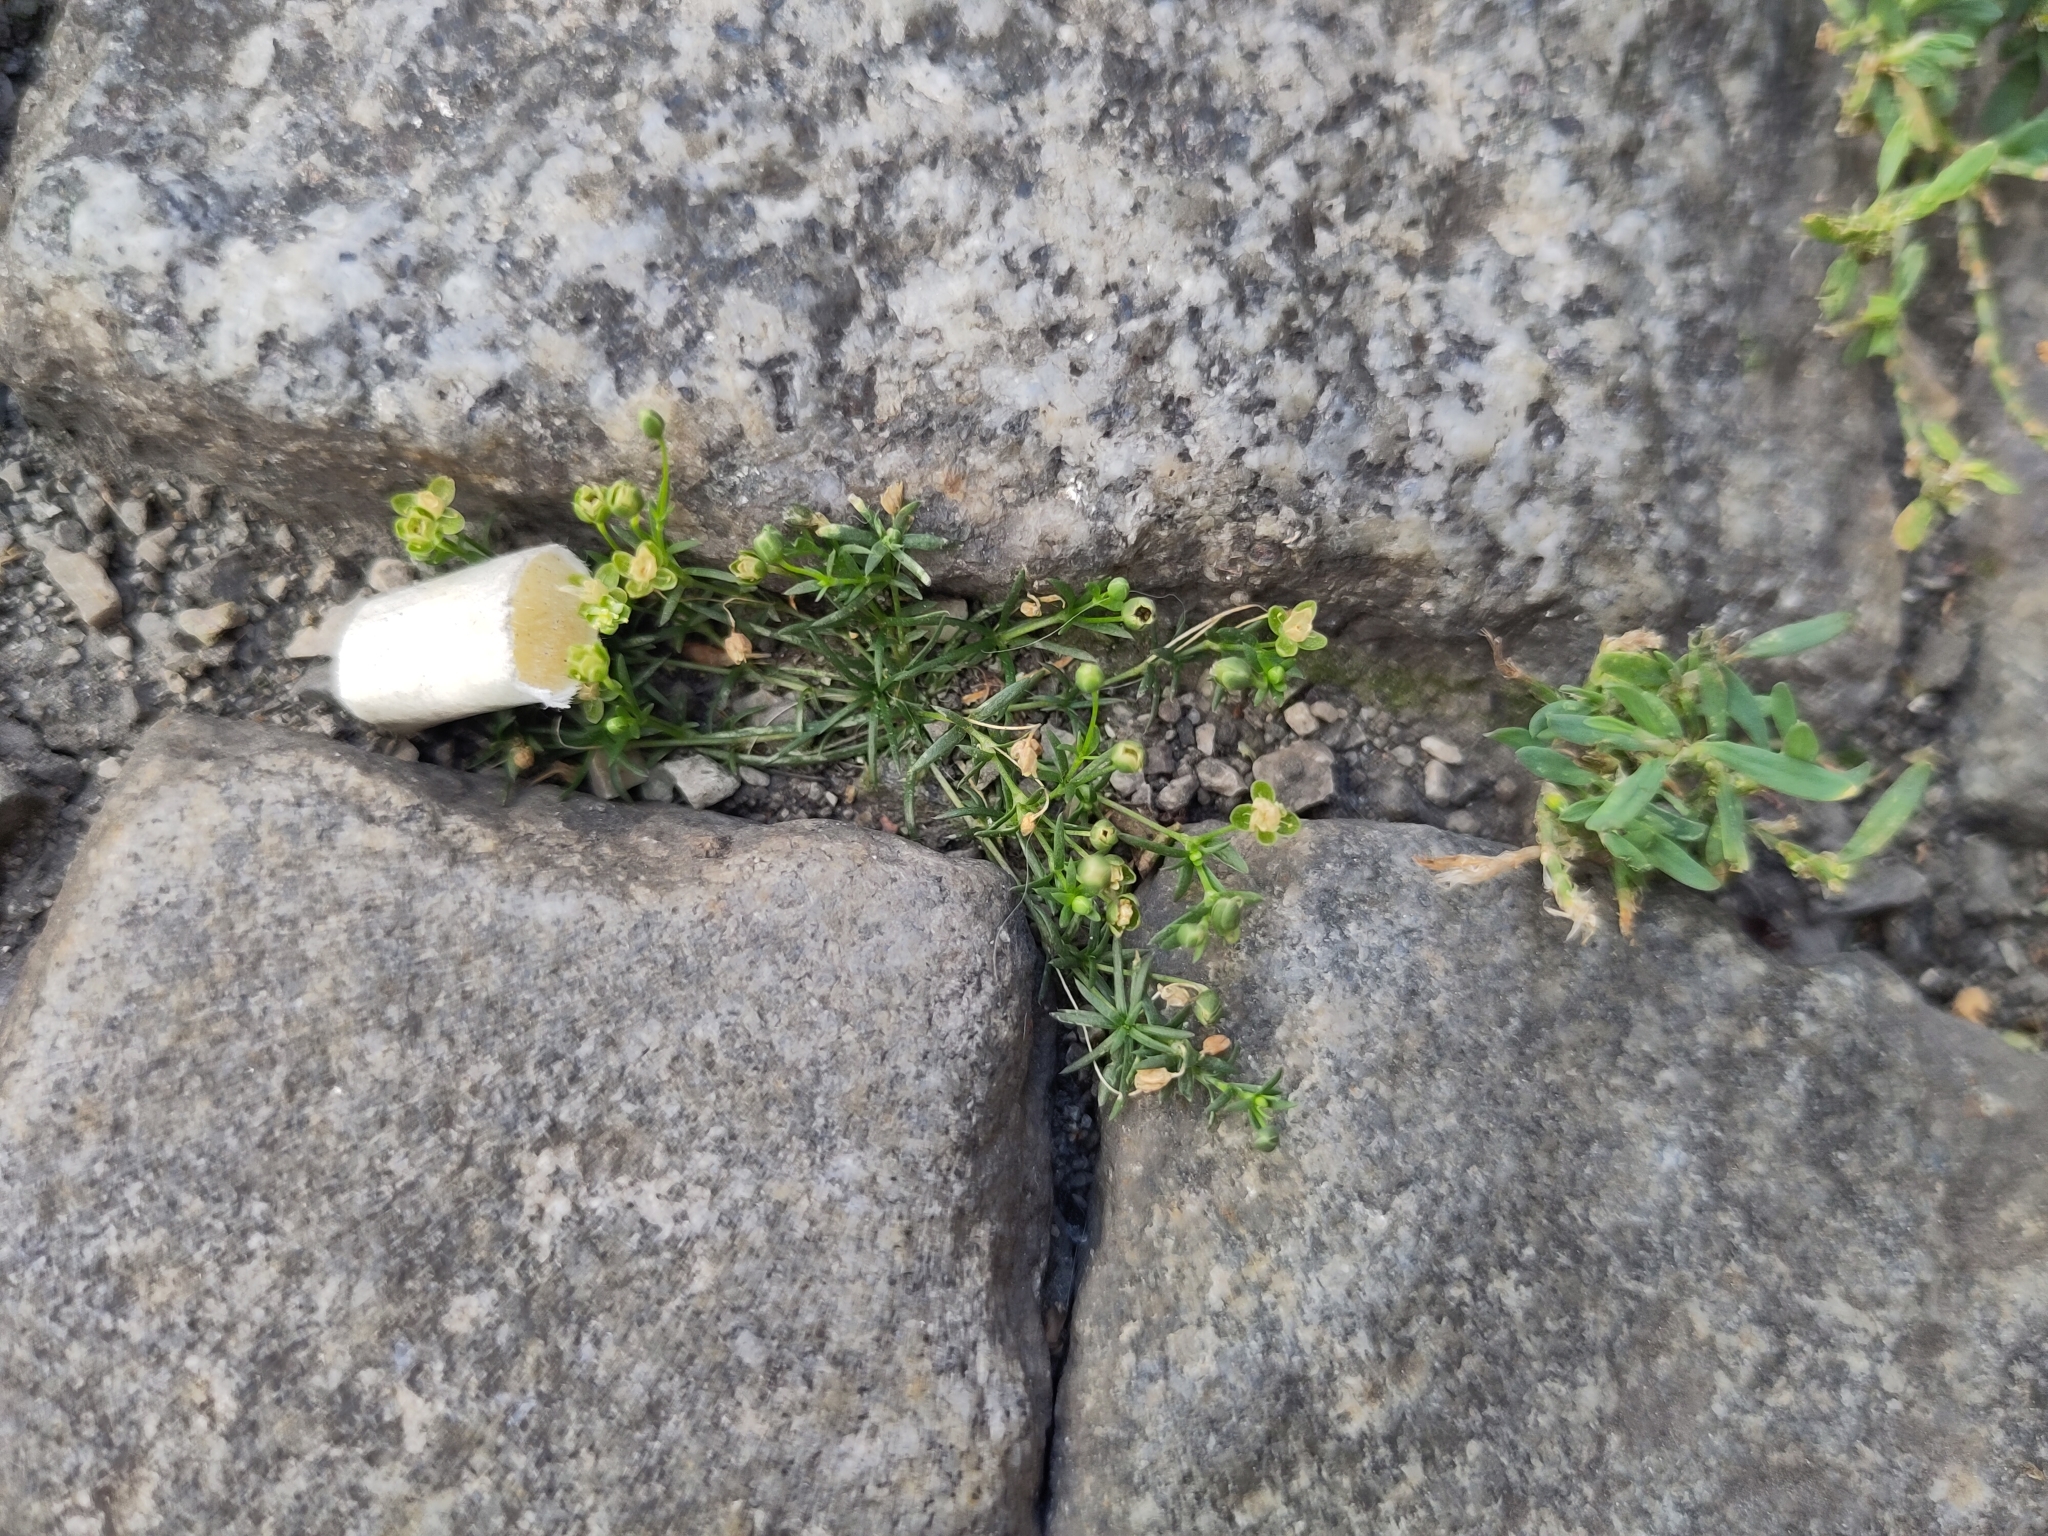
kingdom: Plantae
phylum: Tracheophyta
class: Magnoliopsida
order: Caryophyllales
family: Caryophyllaceae
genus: Sagina
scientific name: Sagina procumbens
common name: Procumbent pearlwort
